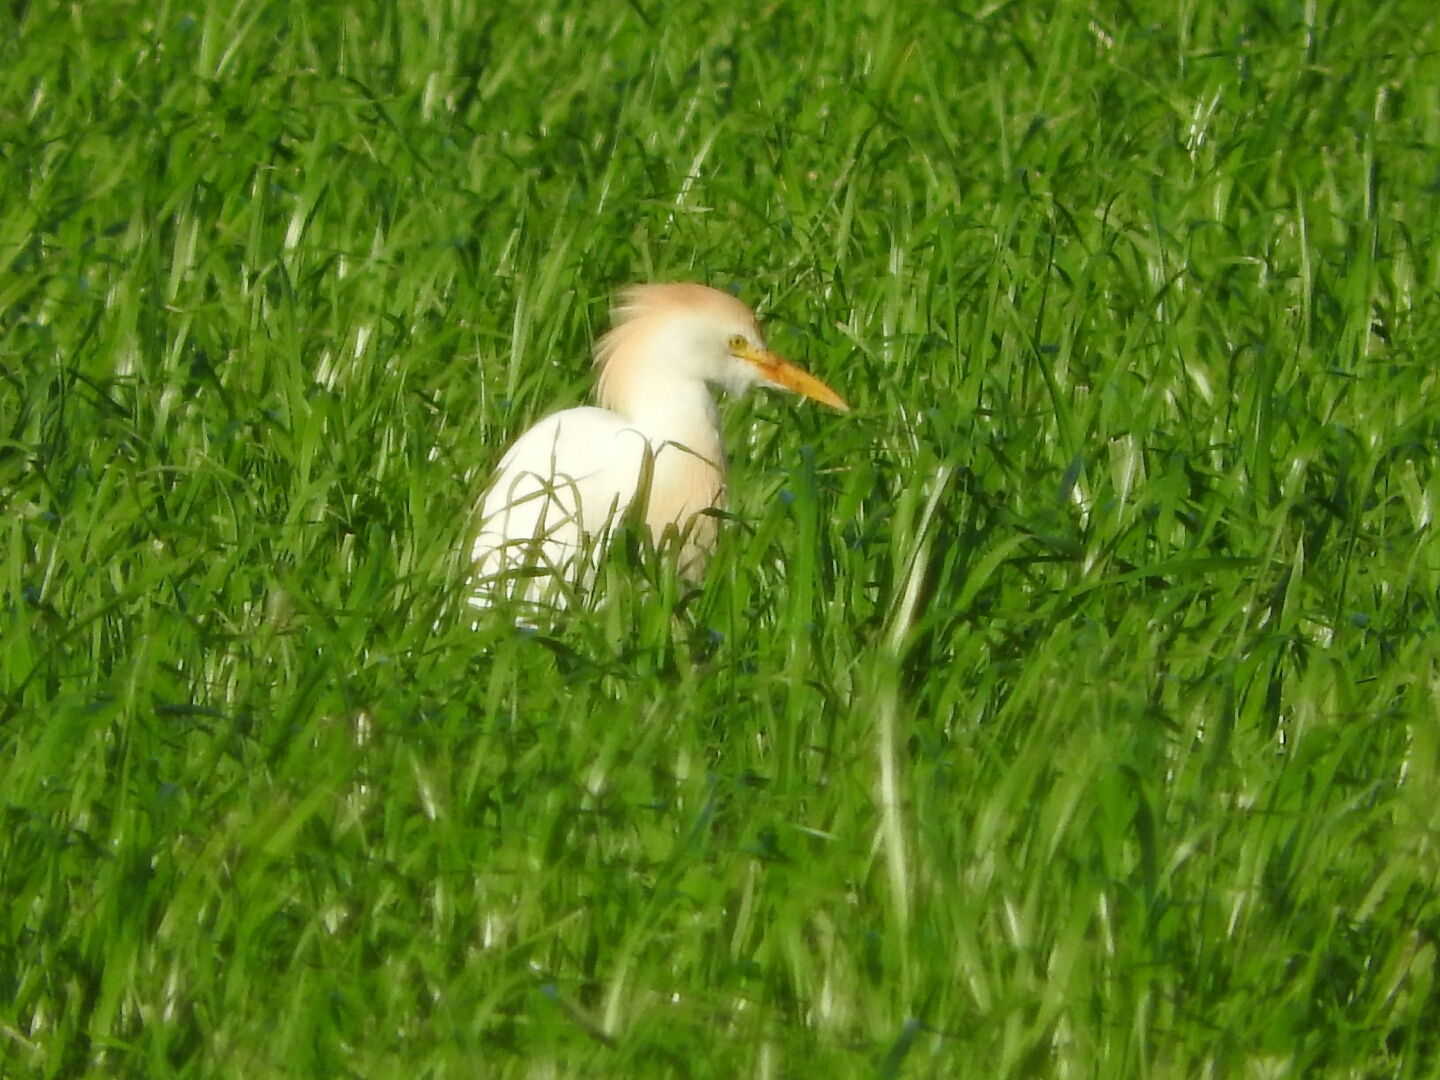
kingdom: Animalia
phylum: Chordata
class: Aves
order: Pelecaniformes
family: Ardeidae
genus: Bubulcus
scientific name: Bubulcus ibis
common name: Cattle egret
